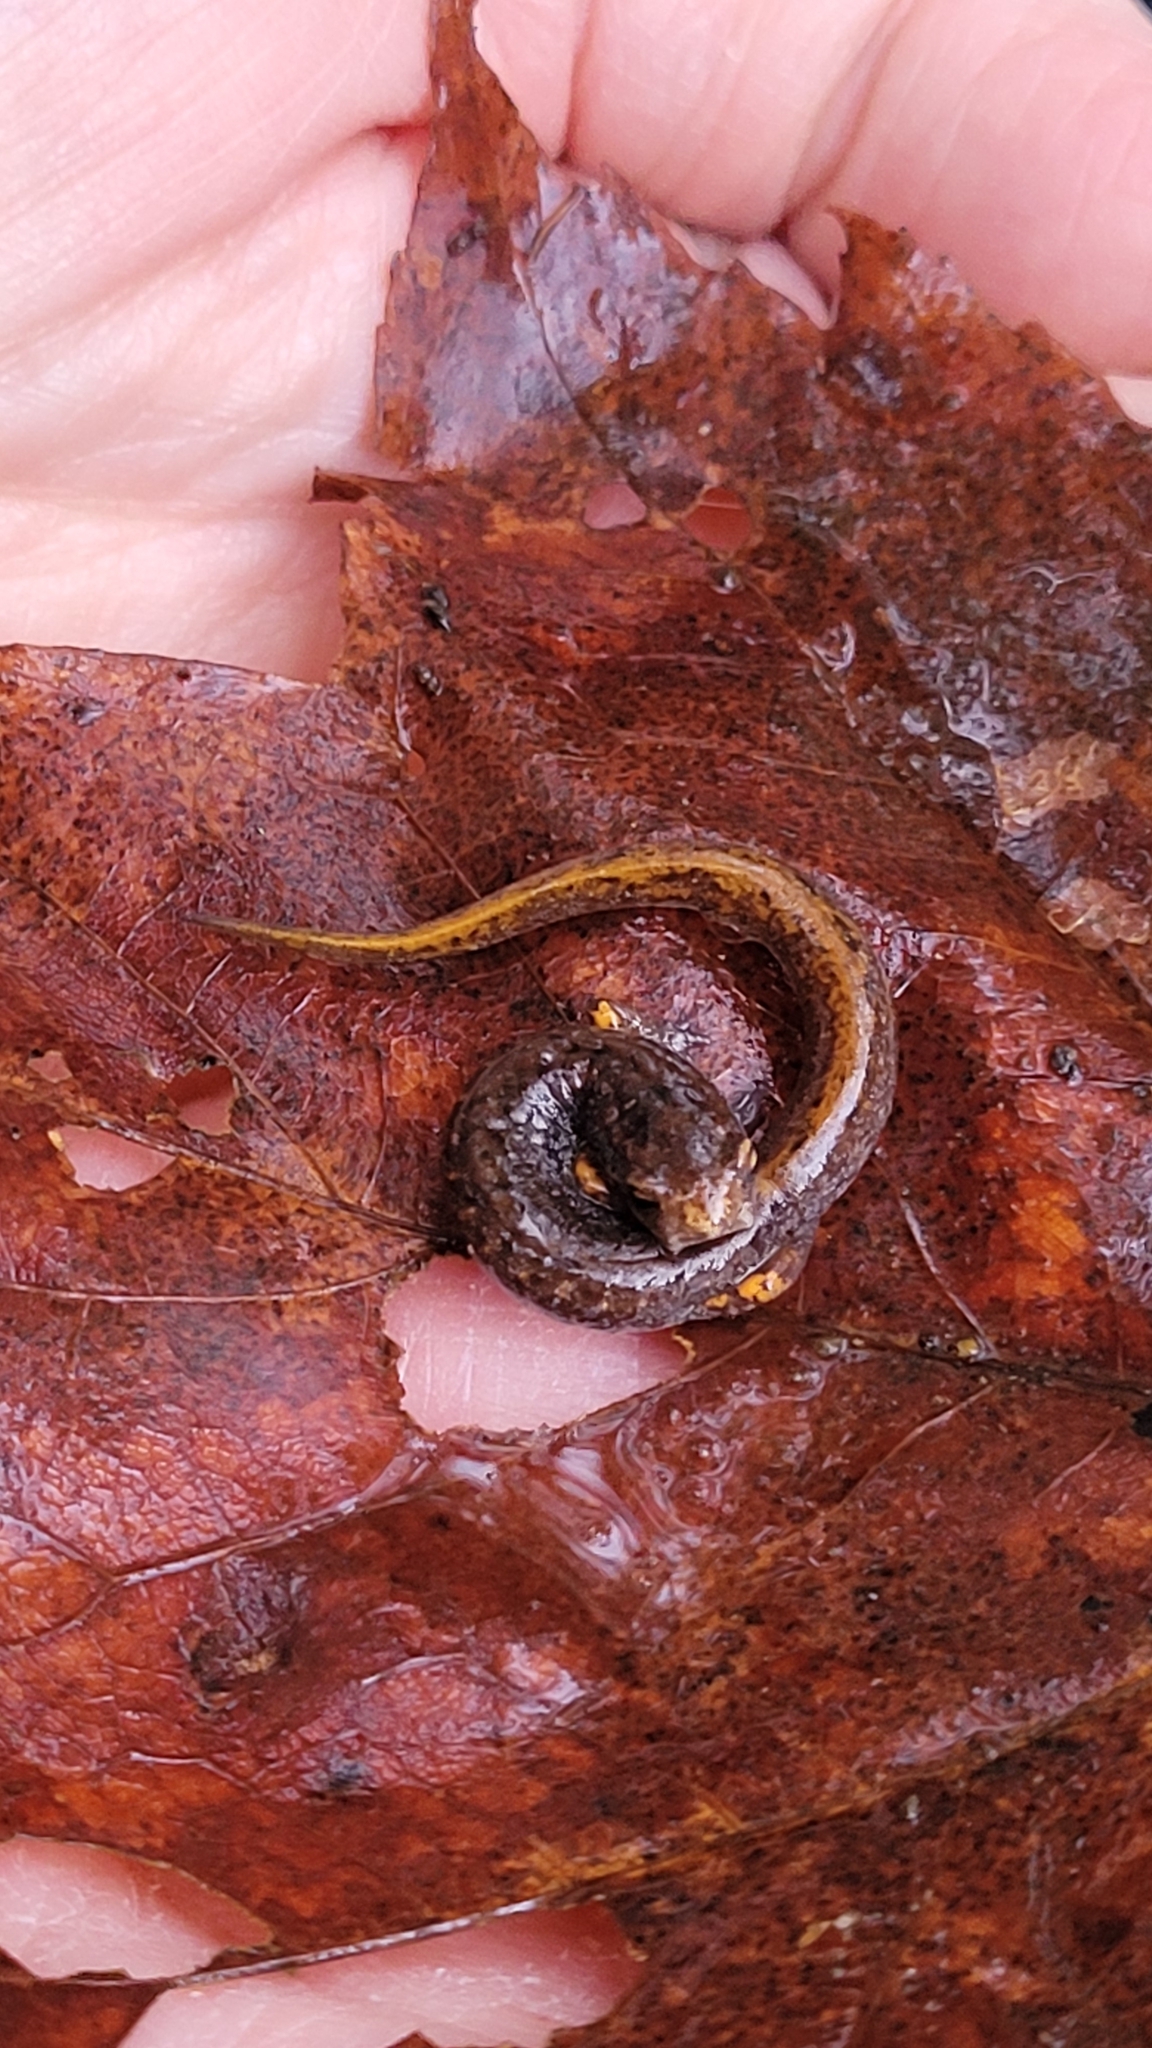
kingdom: Animalia
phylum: Chordata
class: Amphibia
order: Caudata
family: Plethodontidae
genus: Hemidactylium
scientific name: Hemidactylium scutatum
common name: Four-toed salamander
